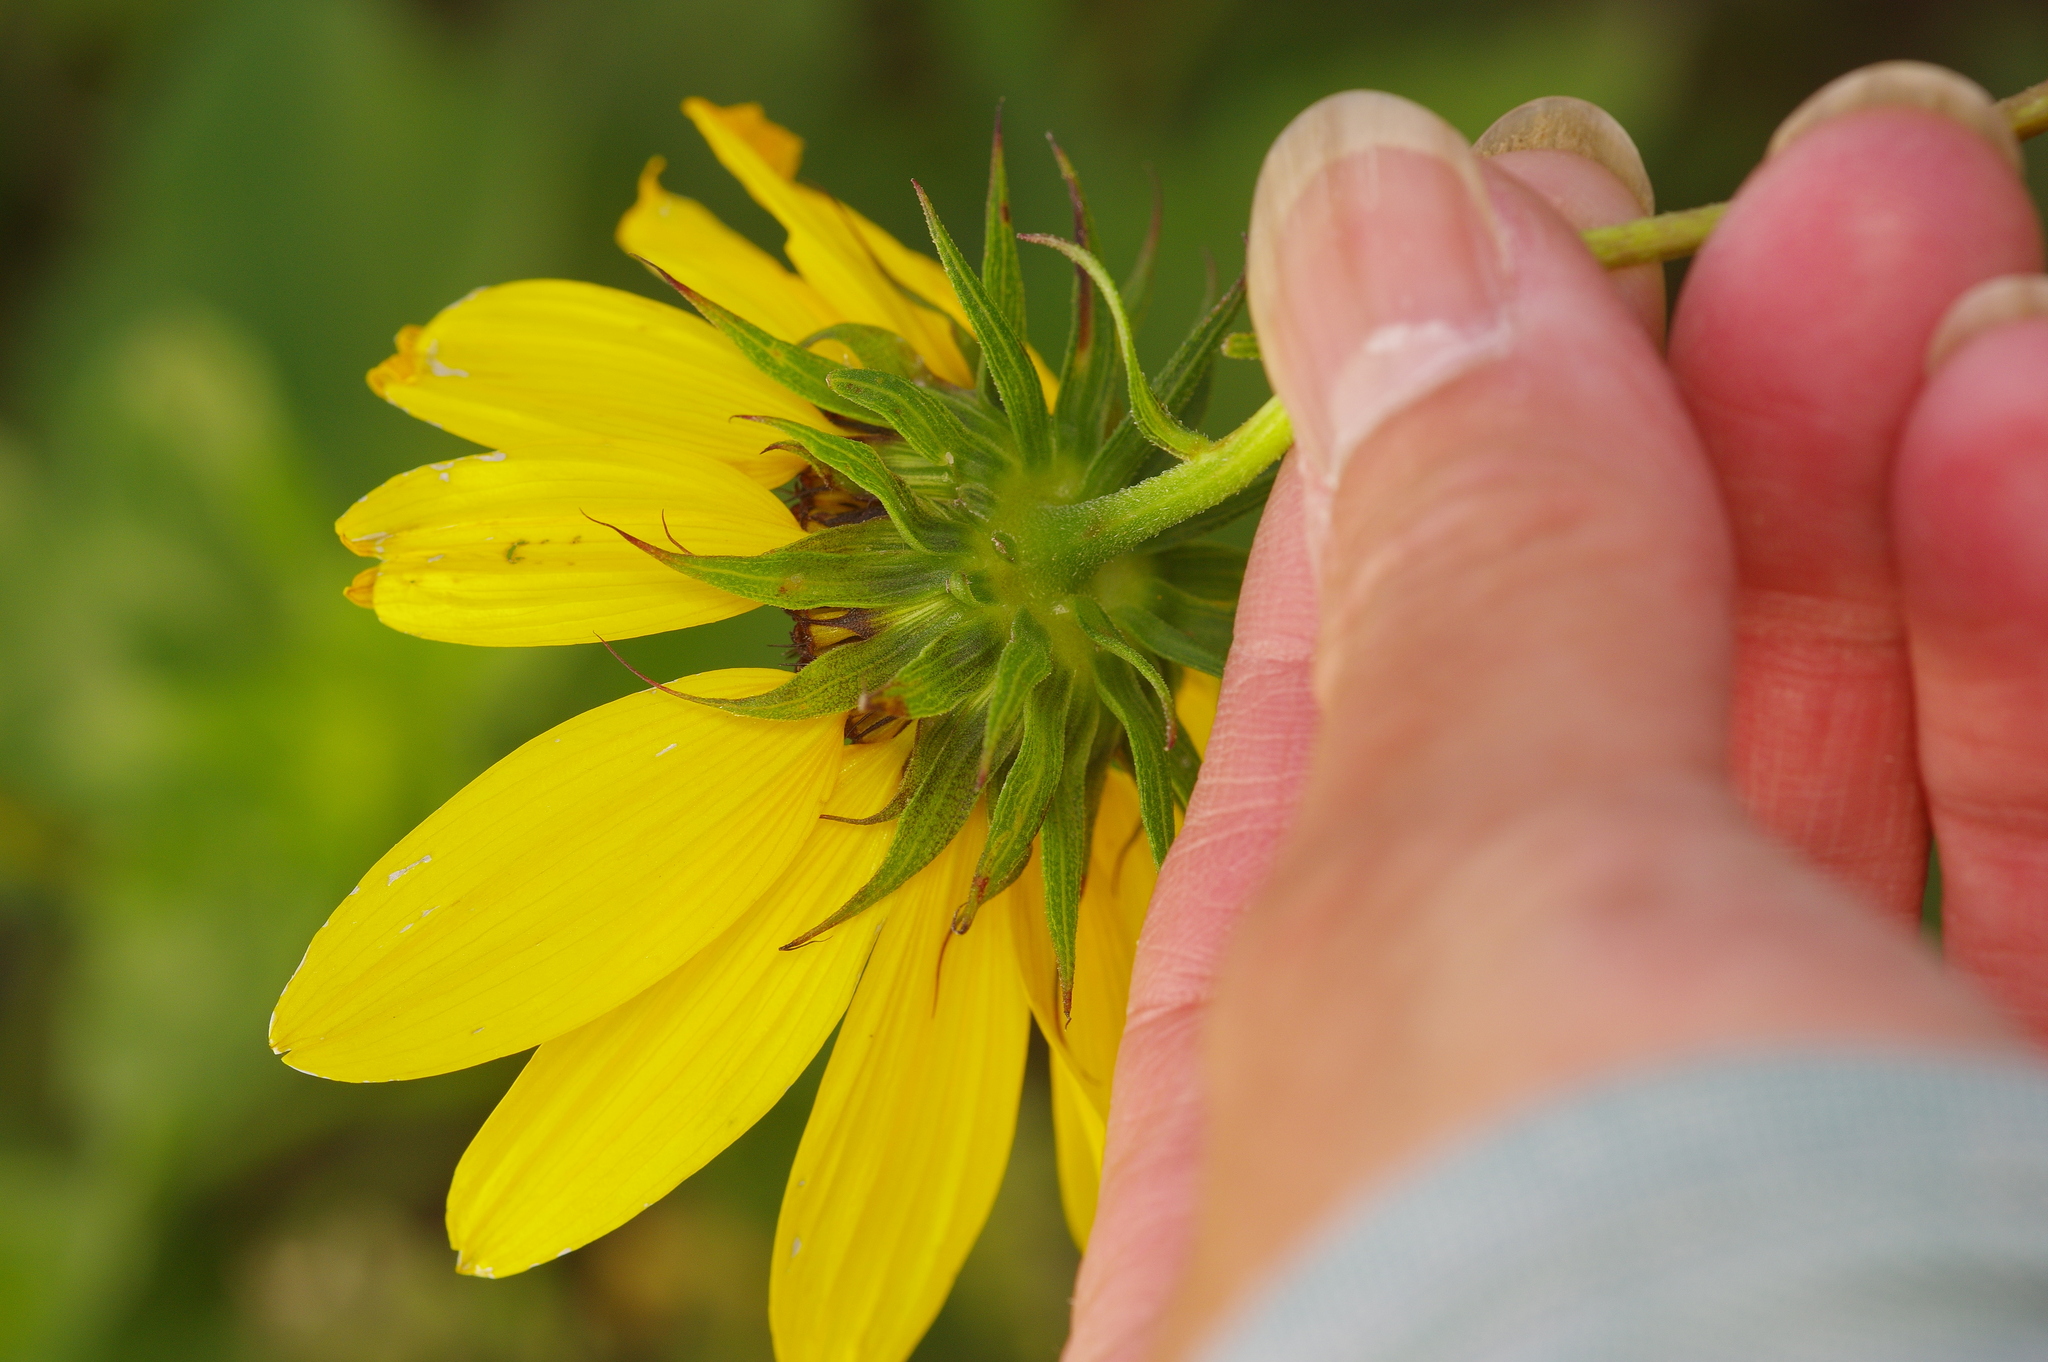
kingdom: Plantae
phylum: Tracheophyta
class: Magnoliopsida
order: Asterales
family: Asteraceae
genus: Helianthus
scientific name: Helianthus debilis
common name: Weak sunflower
